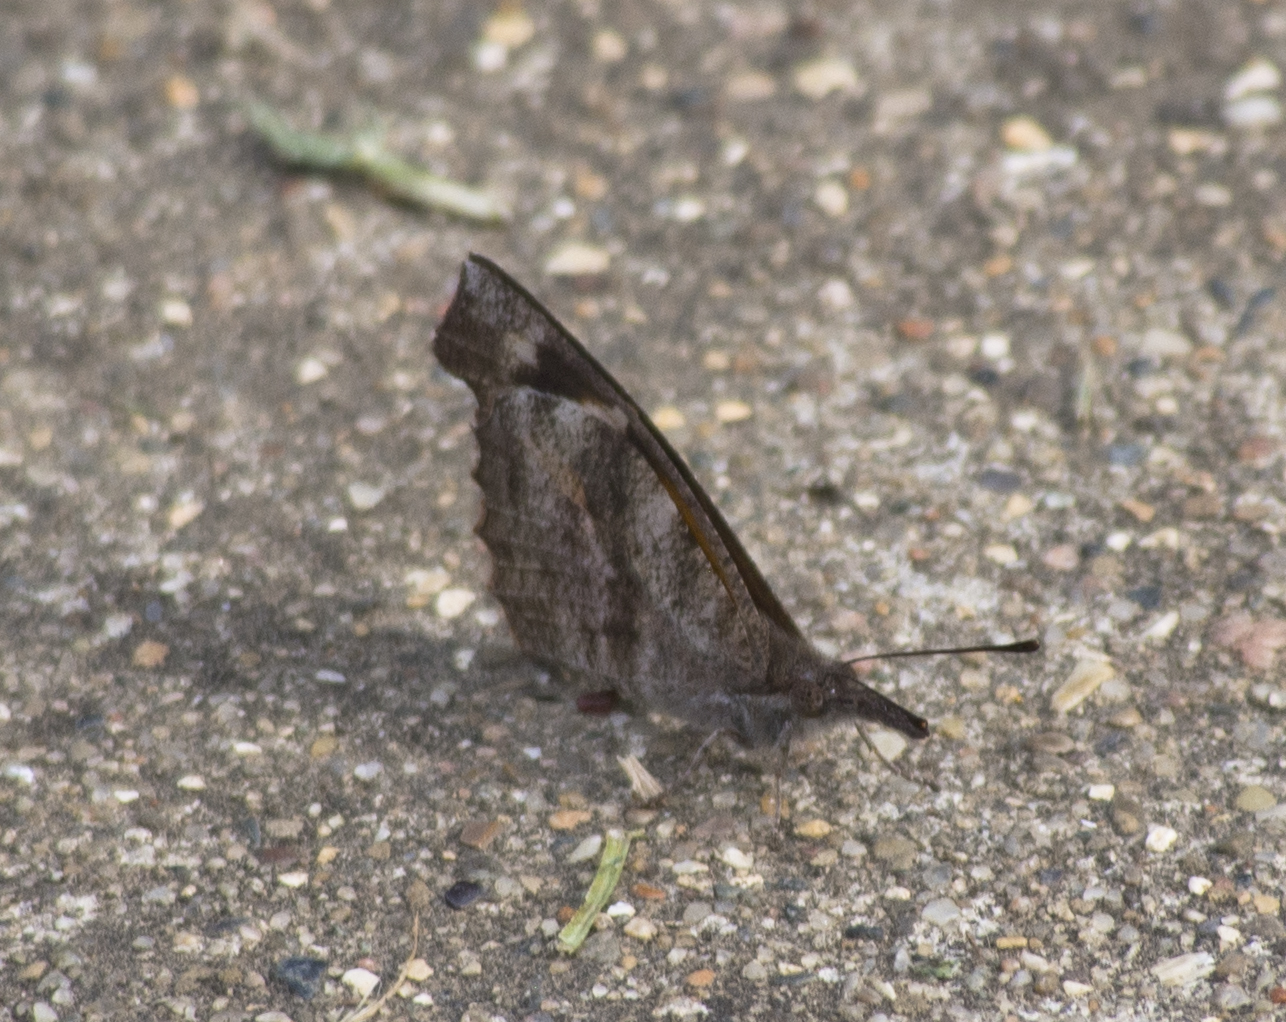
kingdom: Animalia
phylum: Arthropoda
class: Insecta
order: Lepidoptera
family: Nymphalidae
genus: Libytheana
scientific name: Libytheana carinenta
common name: American snout
